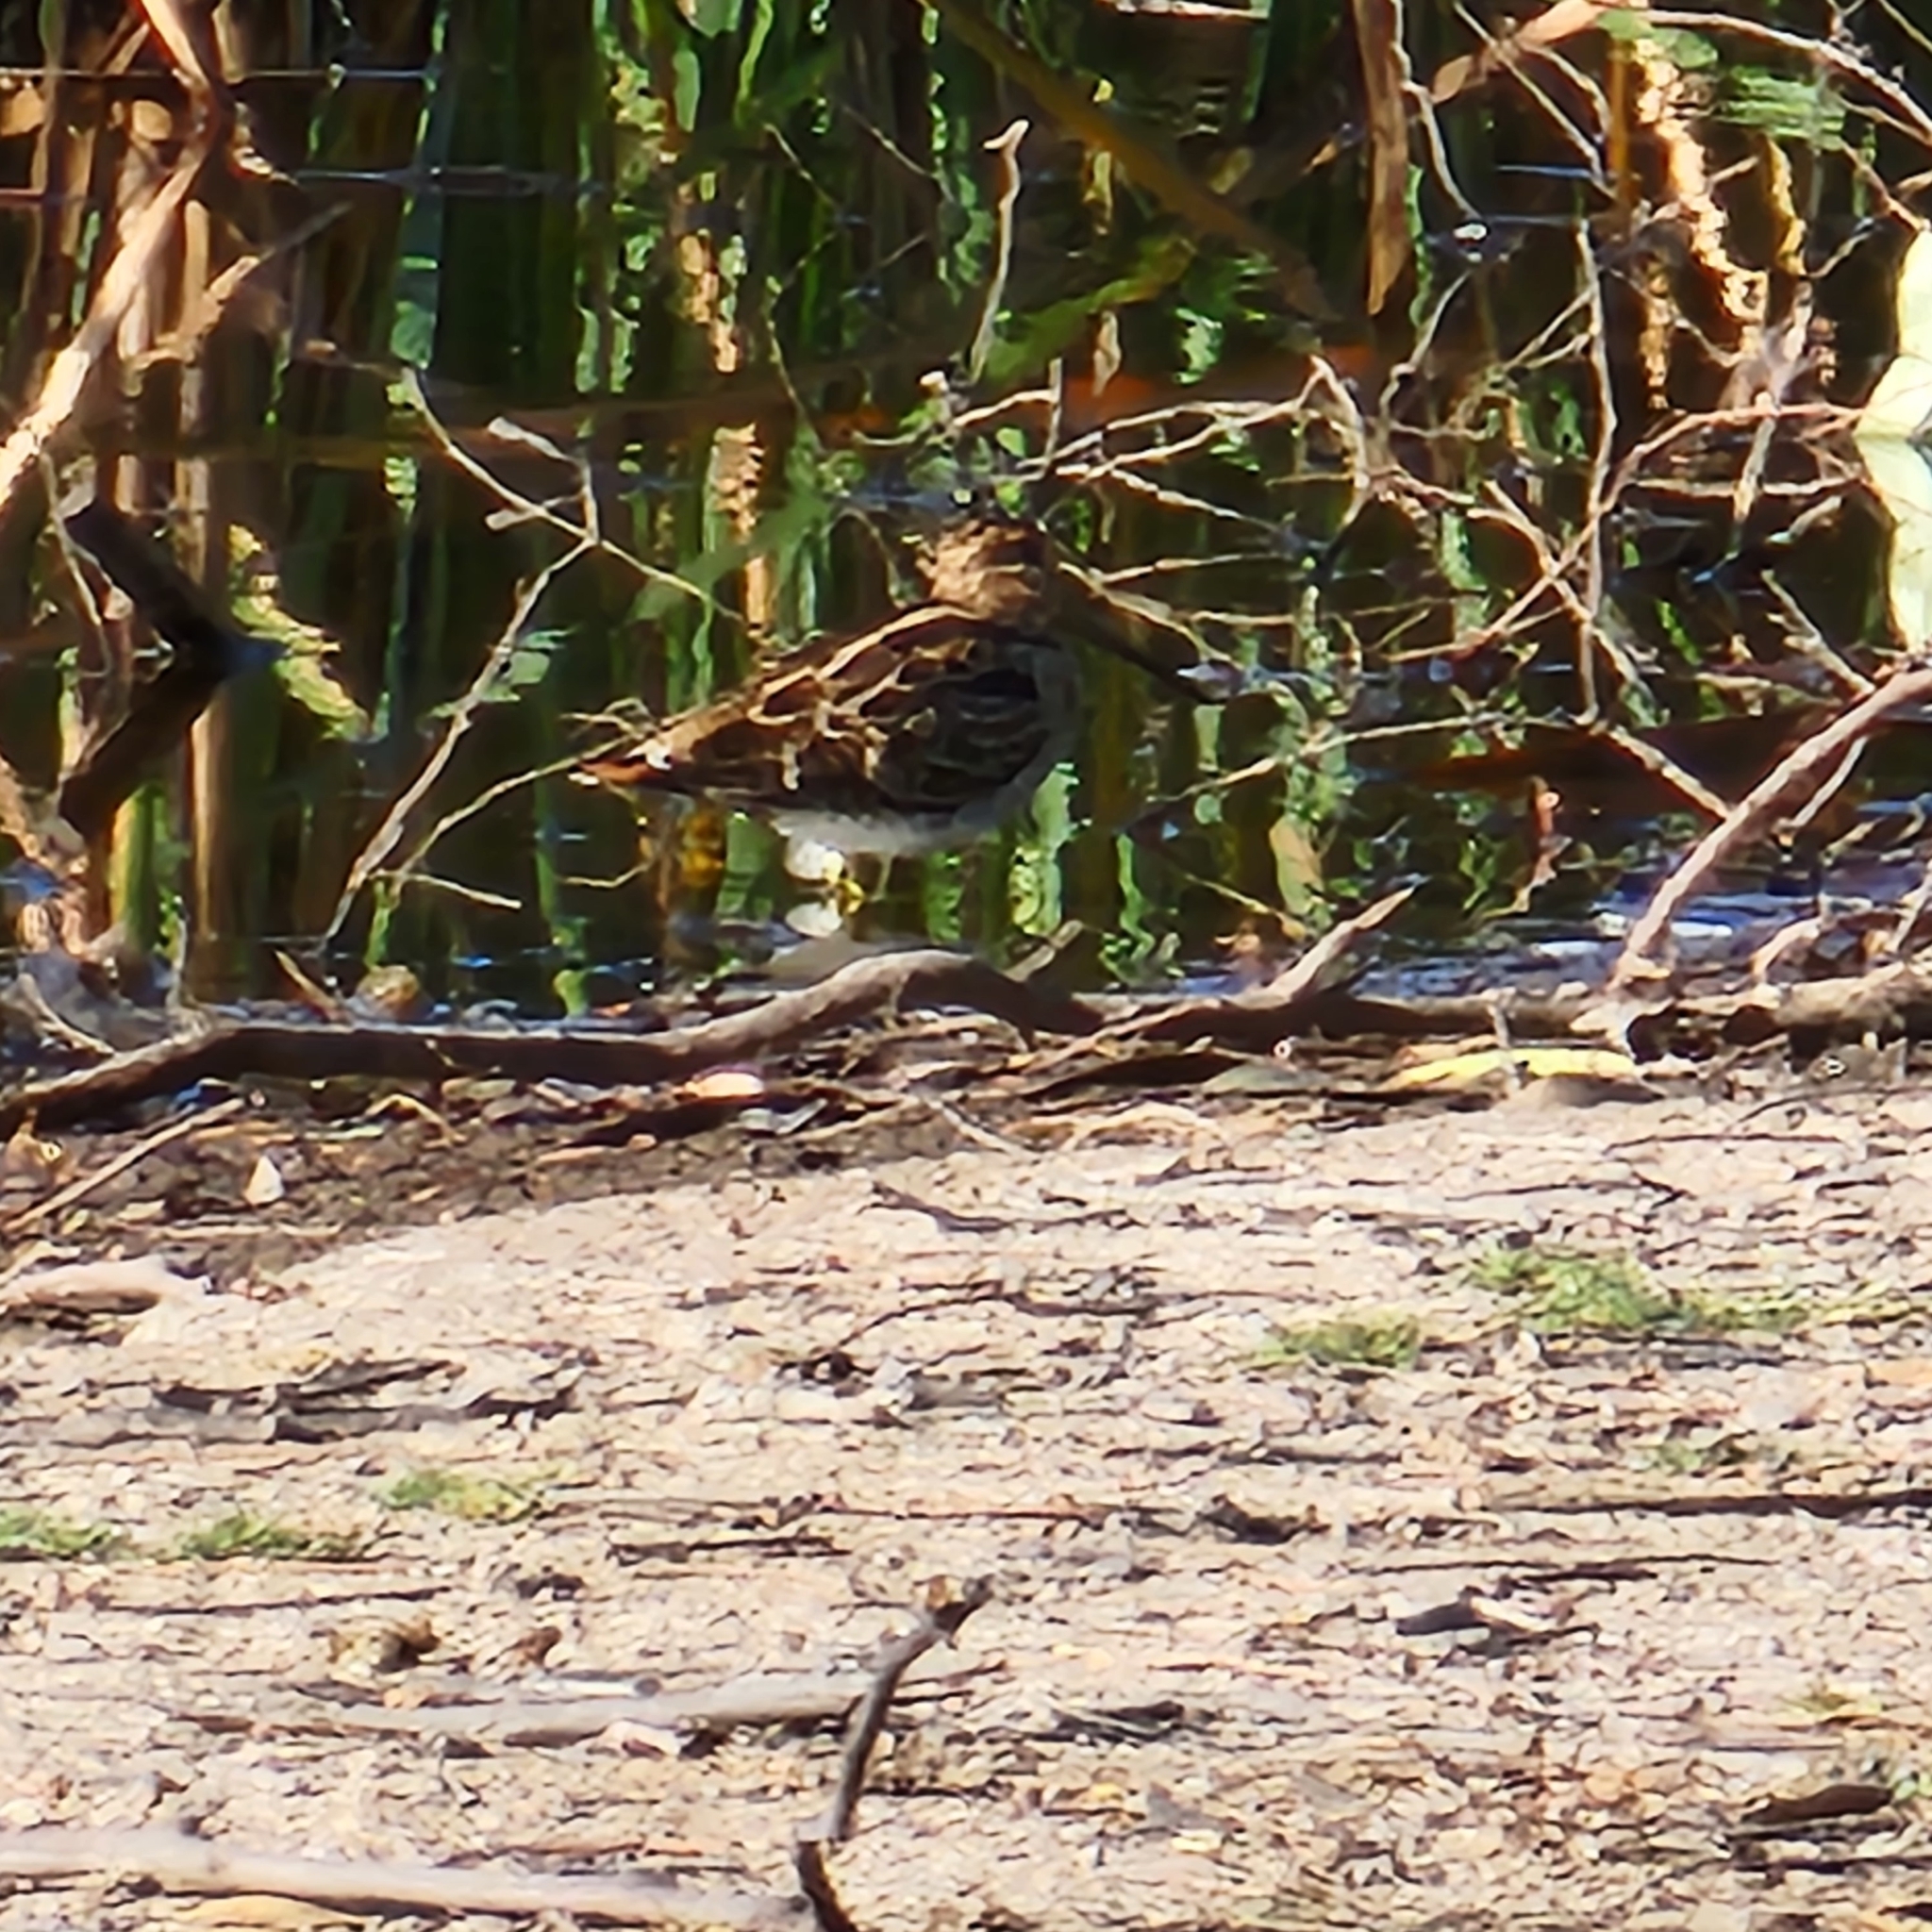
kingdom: Animalia
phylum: Chordata
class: Aves
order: Charadriiformes
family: Scolopacidae
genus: Gallinago
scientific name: Gallinago hardwickii
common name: Latham's snipe
